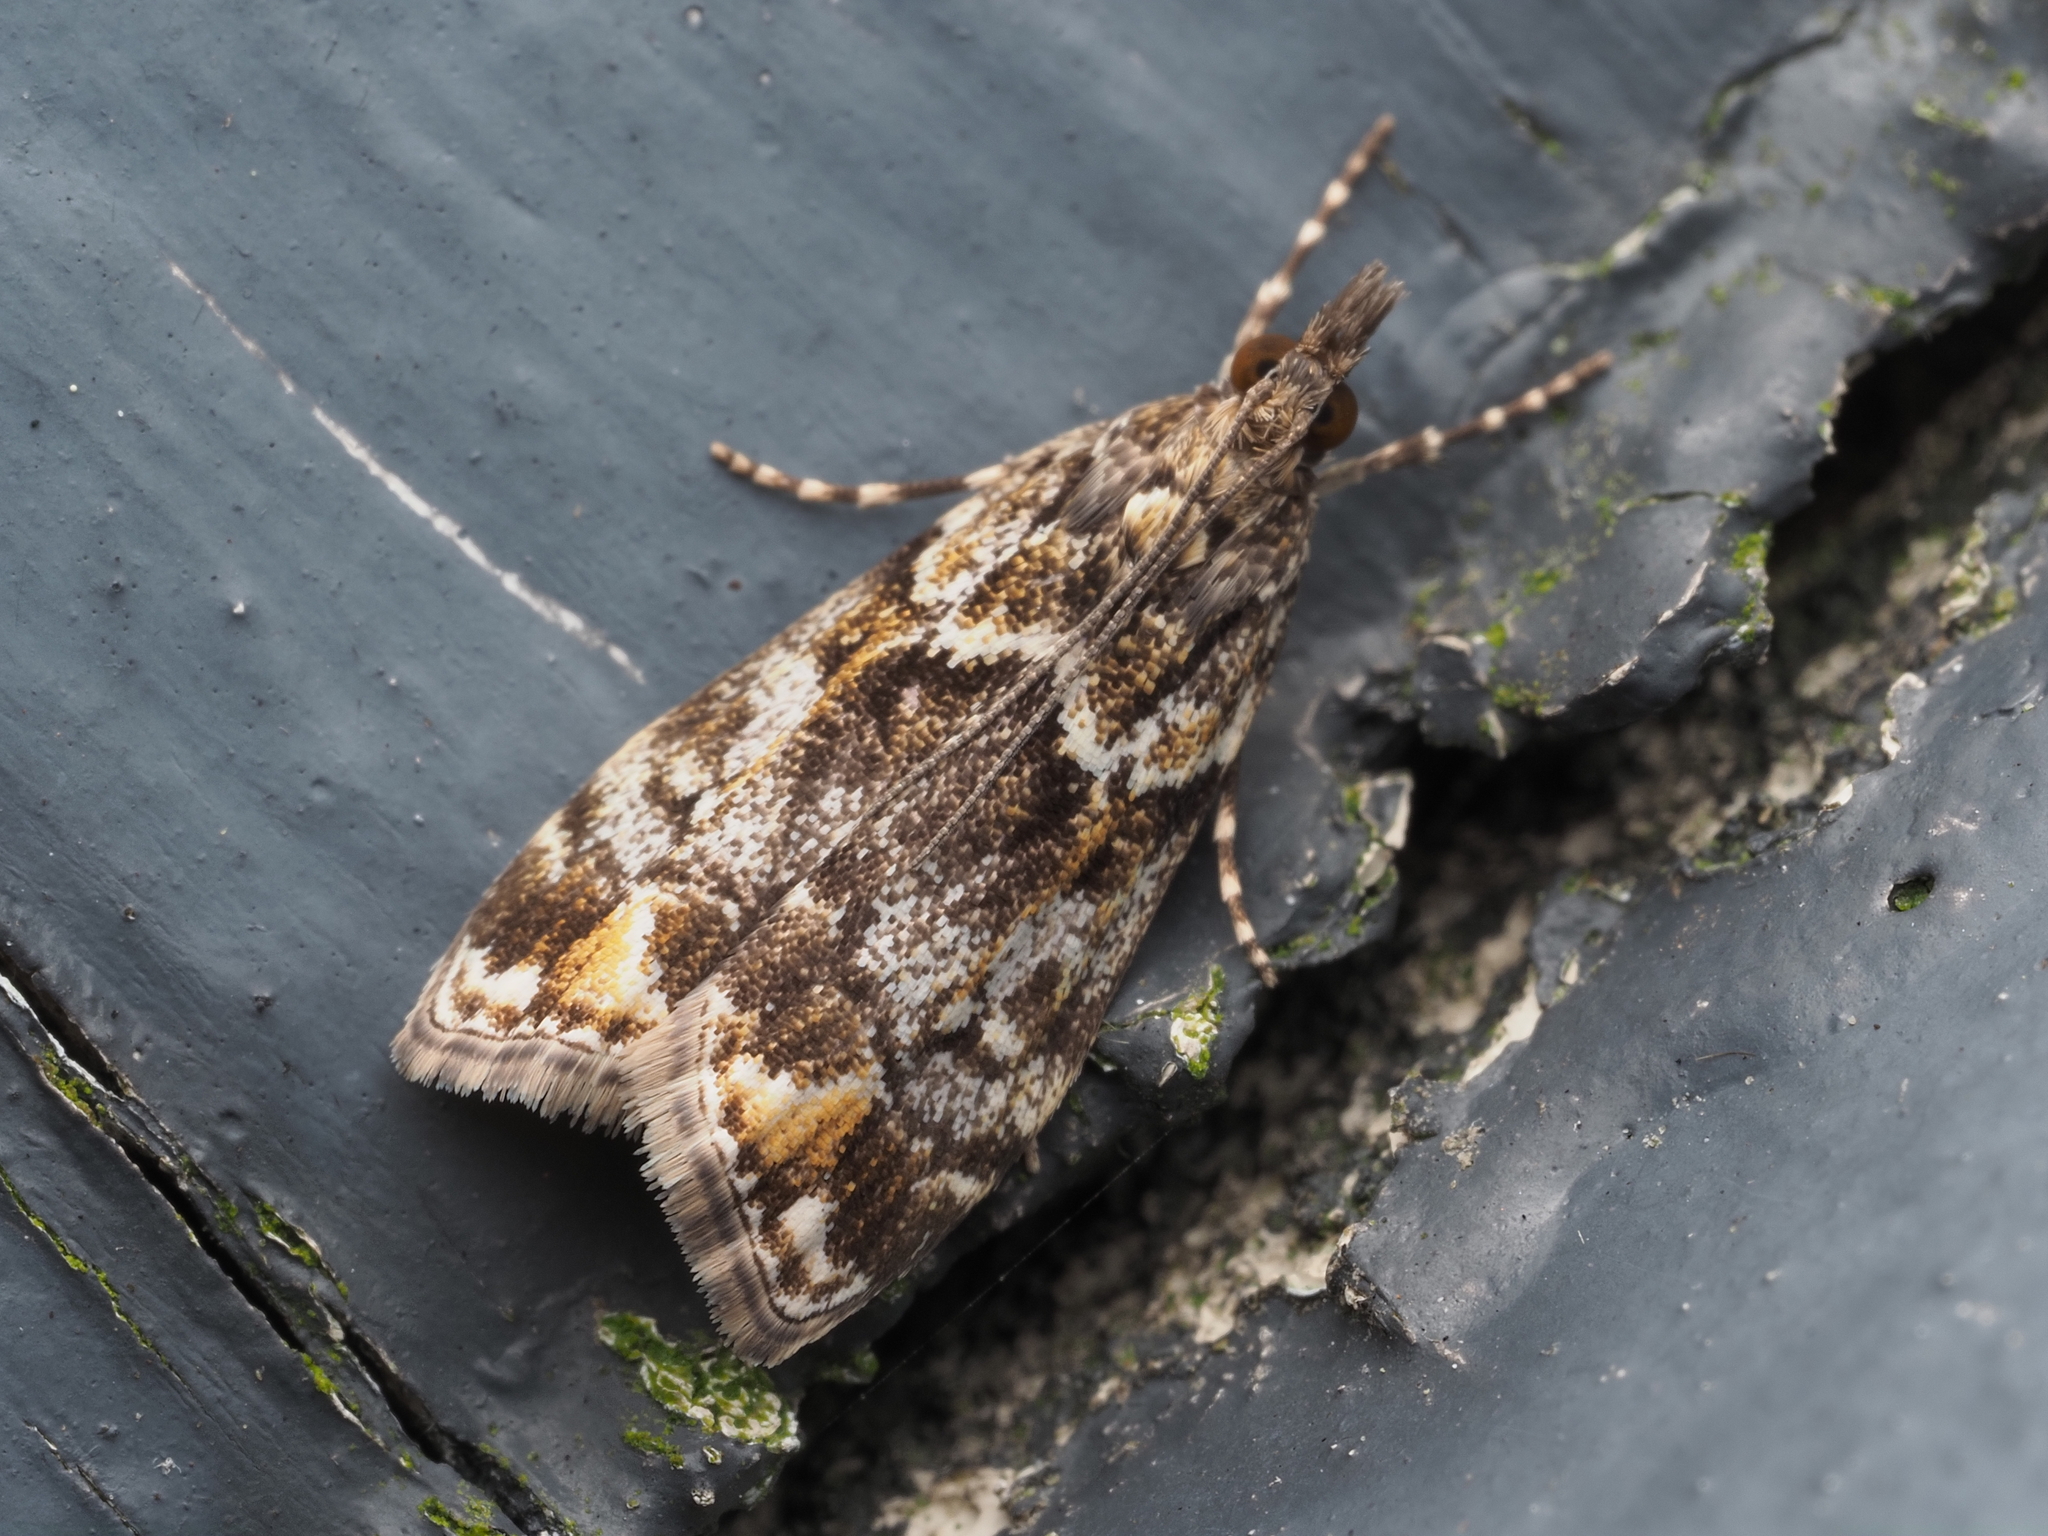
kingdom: Animalia
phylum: Arthropoda
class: Insecta
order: Lepidoptera
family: Crambidae
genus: Eudonia
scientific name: Eudonia minualis
